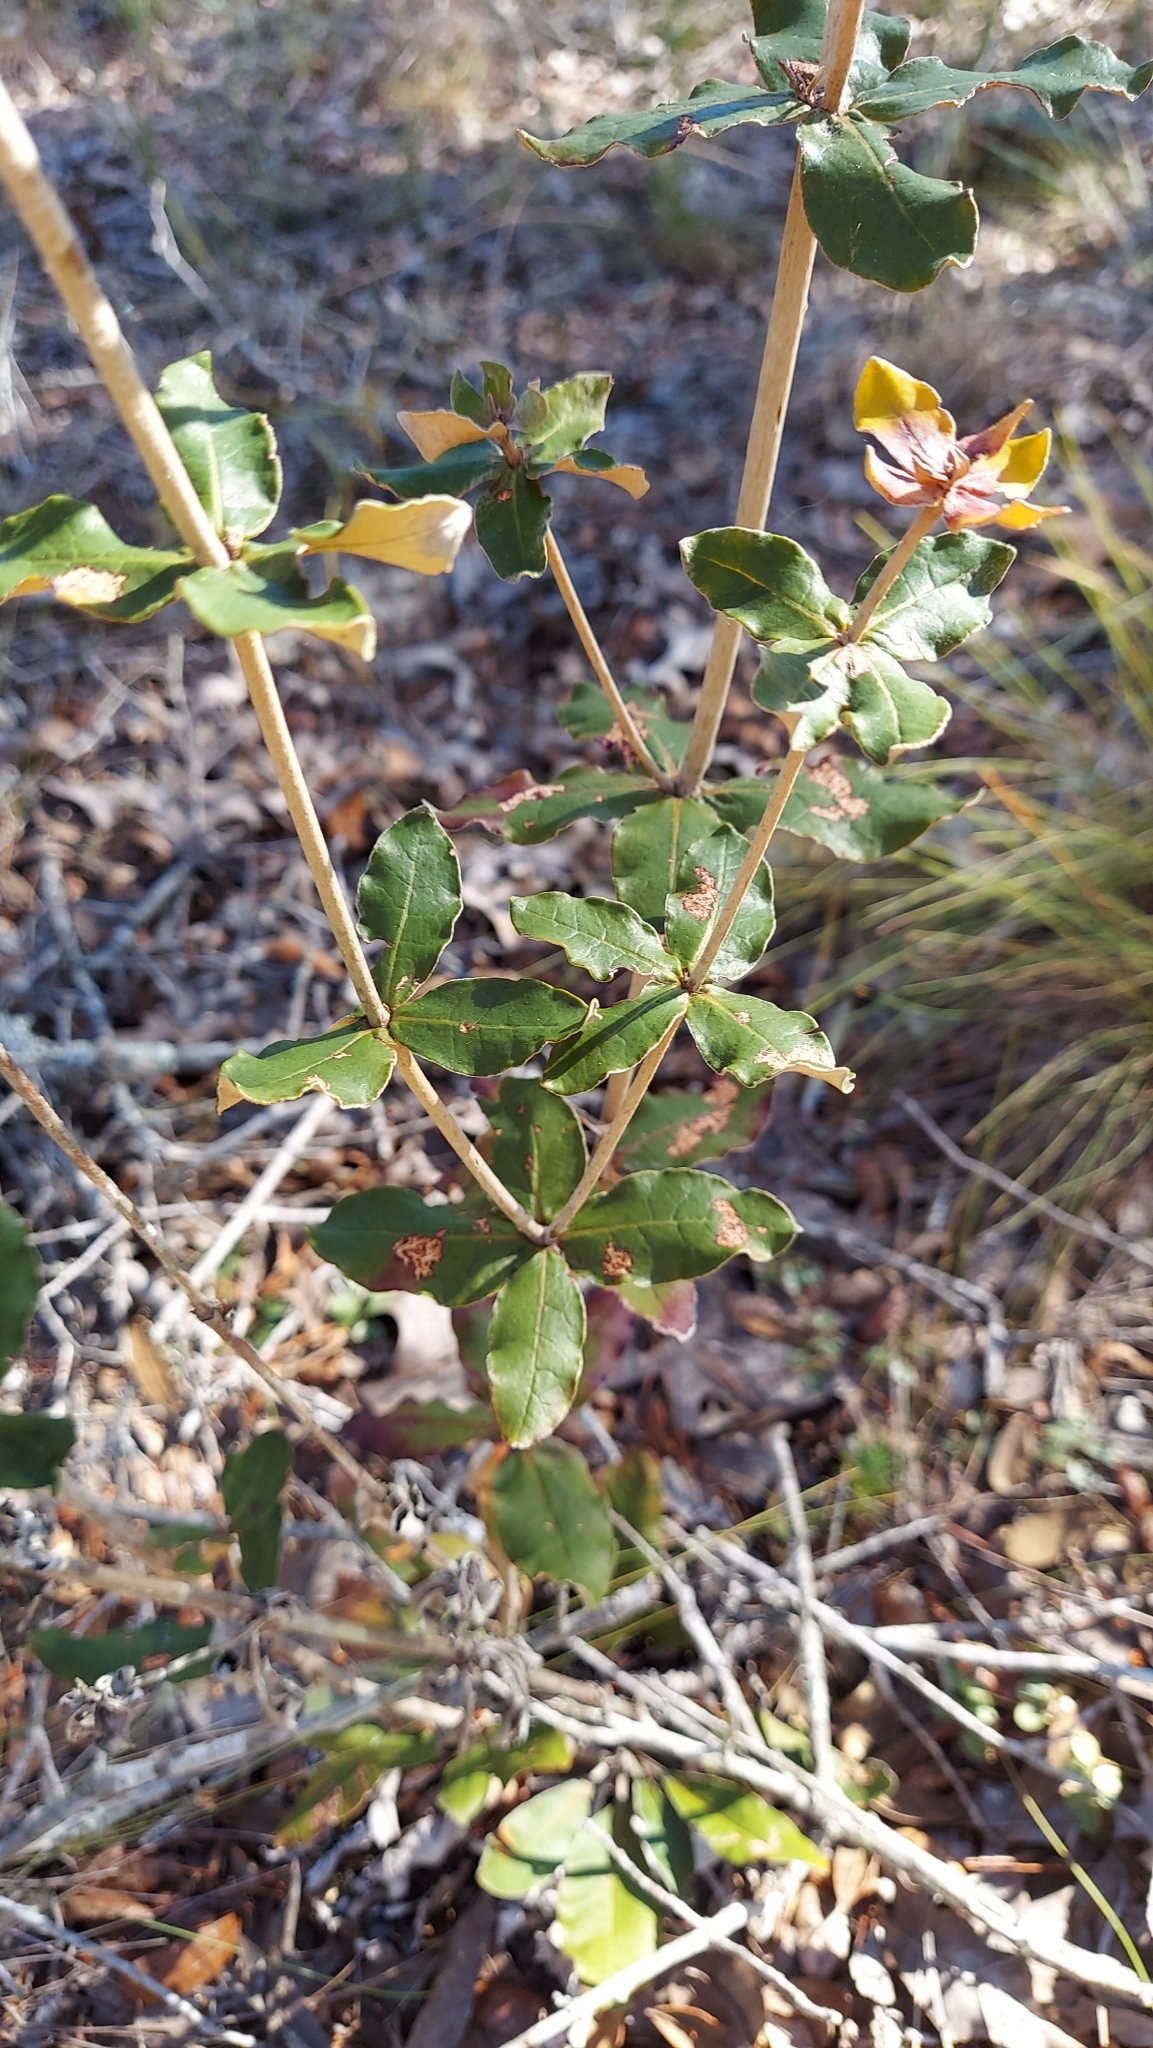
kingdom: Plantae
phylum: Tracheophyta
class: Magnoliopsida
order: Caryophyllales
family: Polygonaceae
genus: Eriogonum
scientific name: Eriogonum tomentosum
